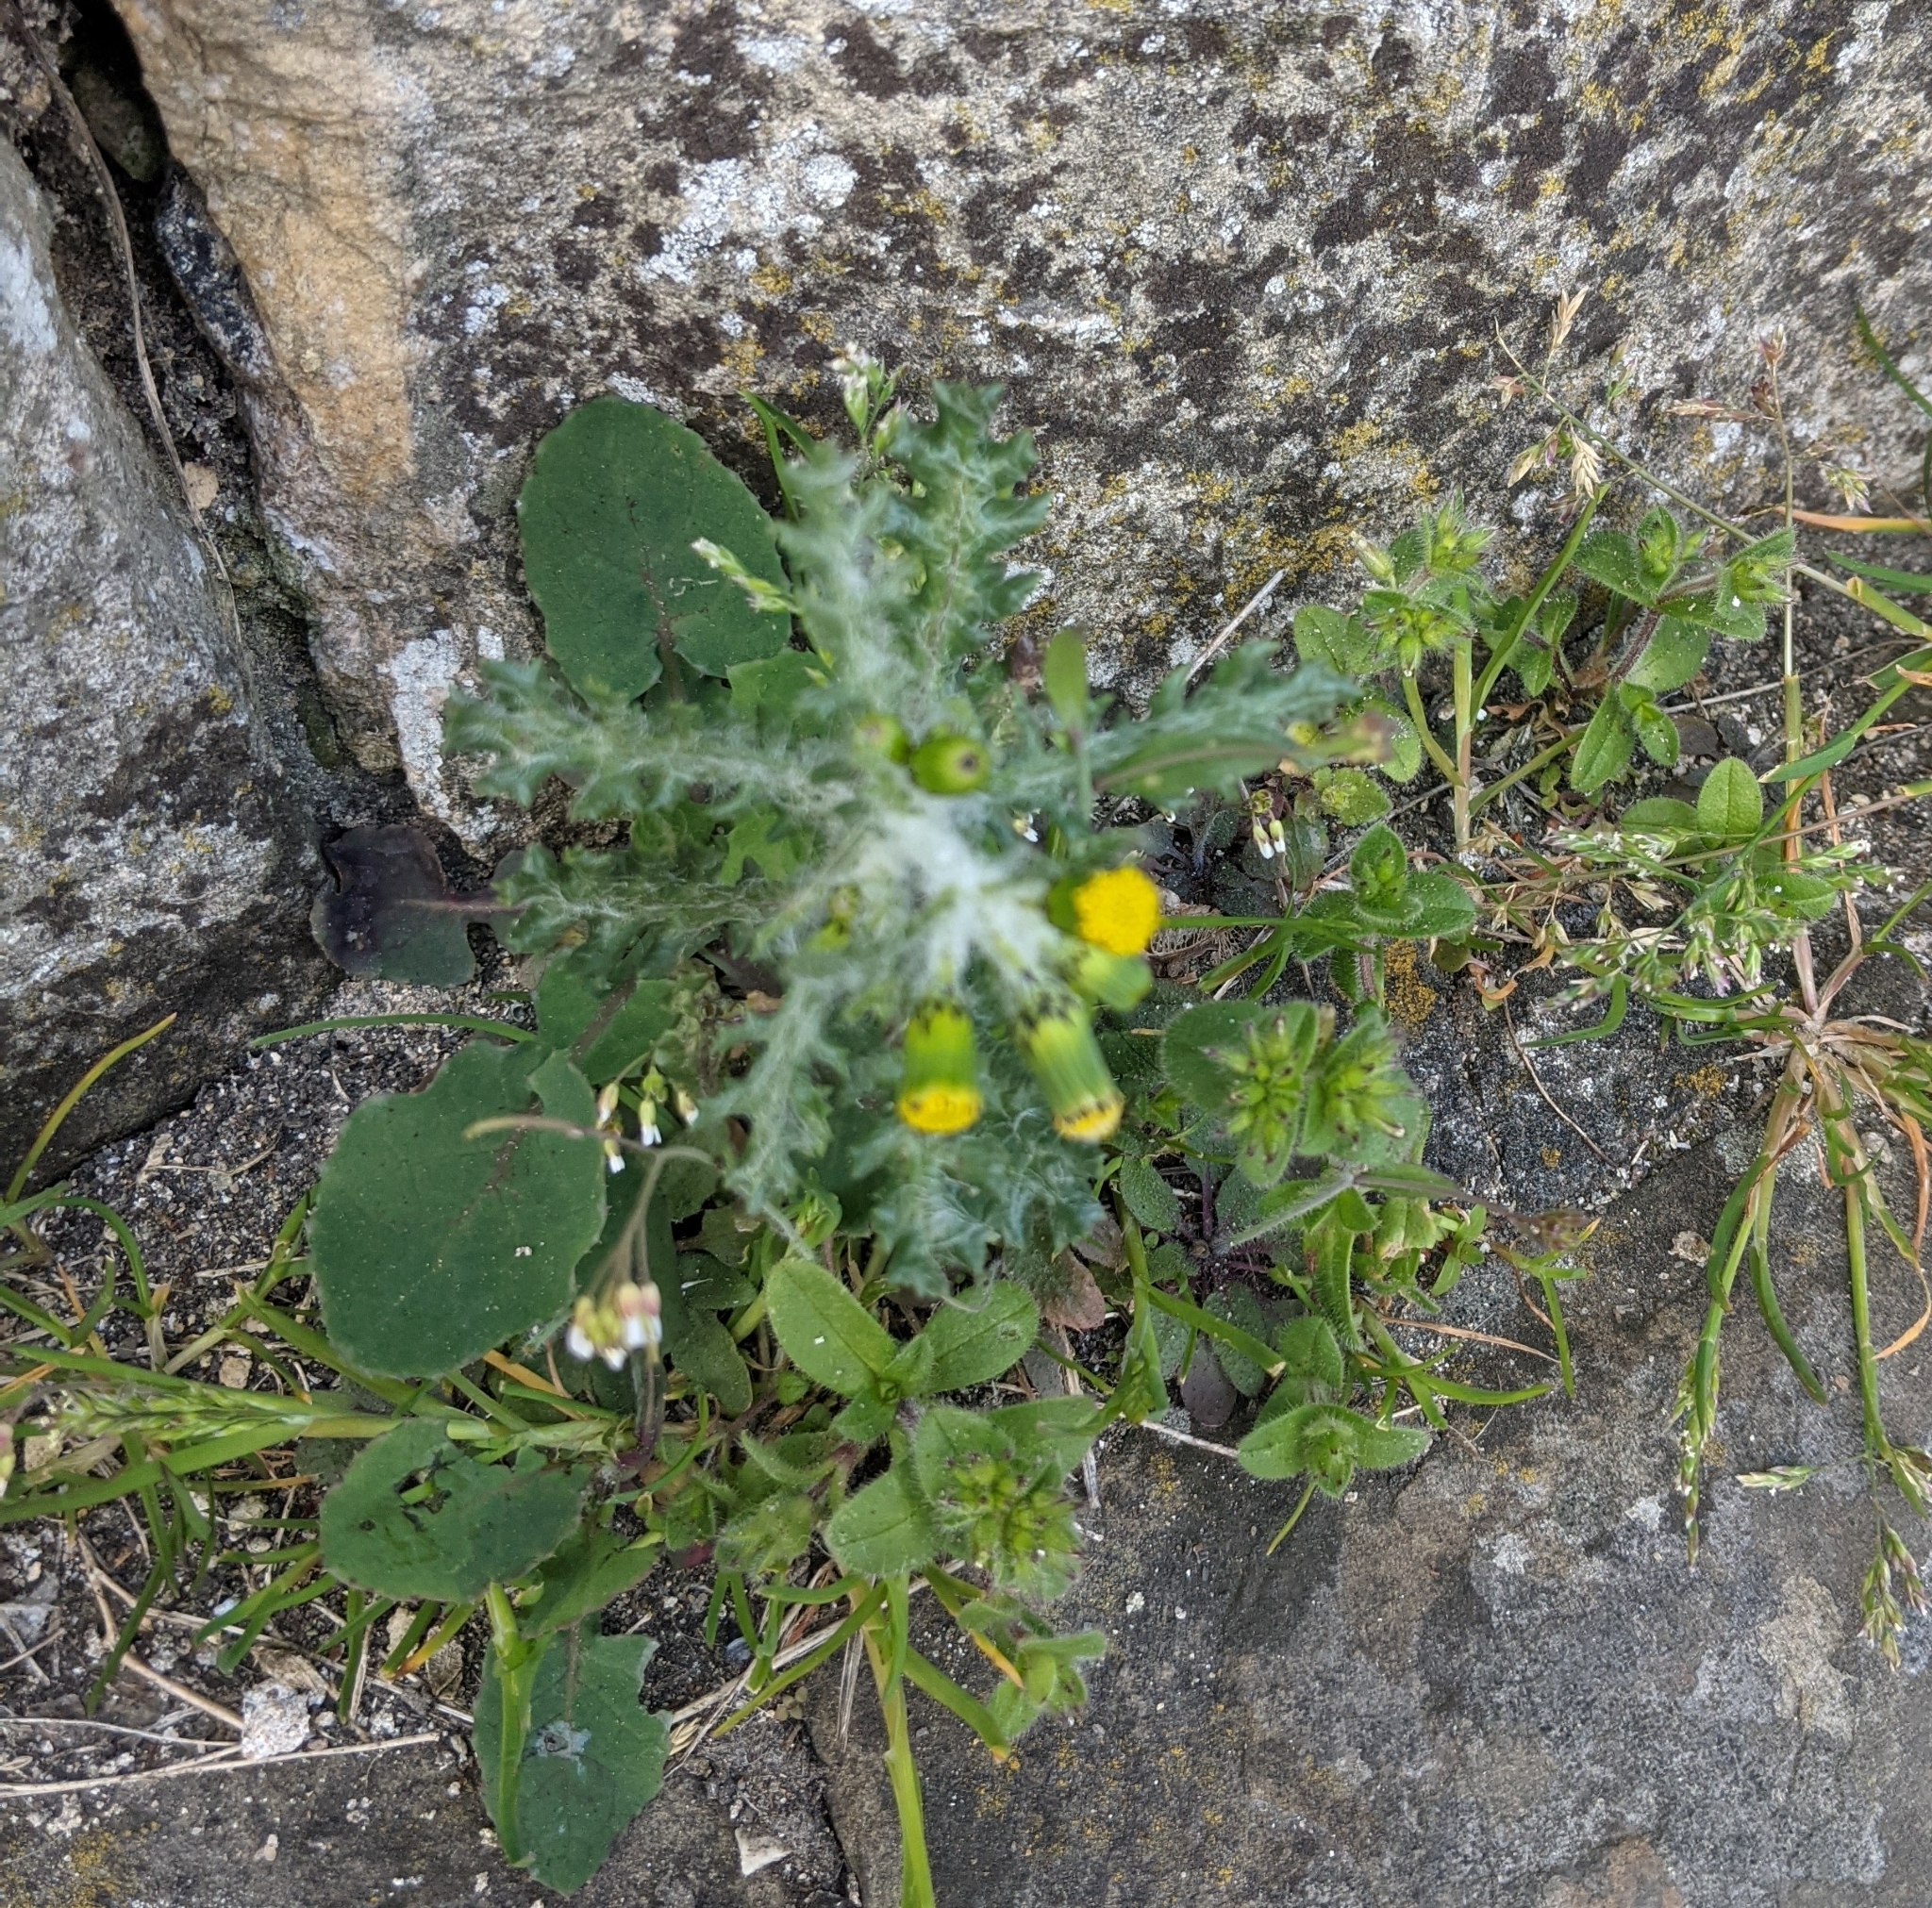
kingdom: Plantae
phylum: Tracheophyta
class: Magnoliopsida
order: Asterales
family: Asteraceae
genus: Senecio
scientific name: Senecio vulgaris
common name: Old-man-in-the-spring
